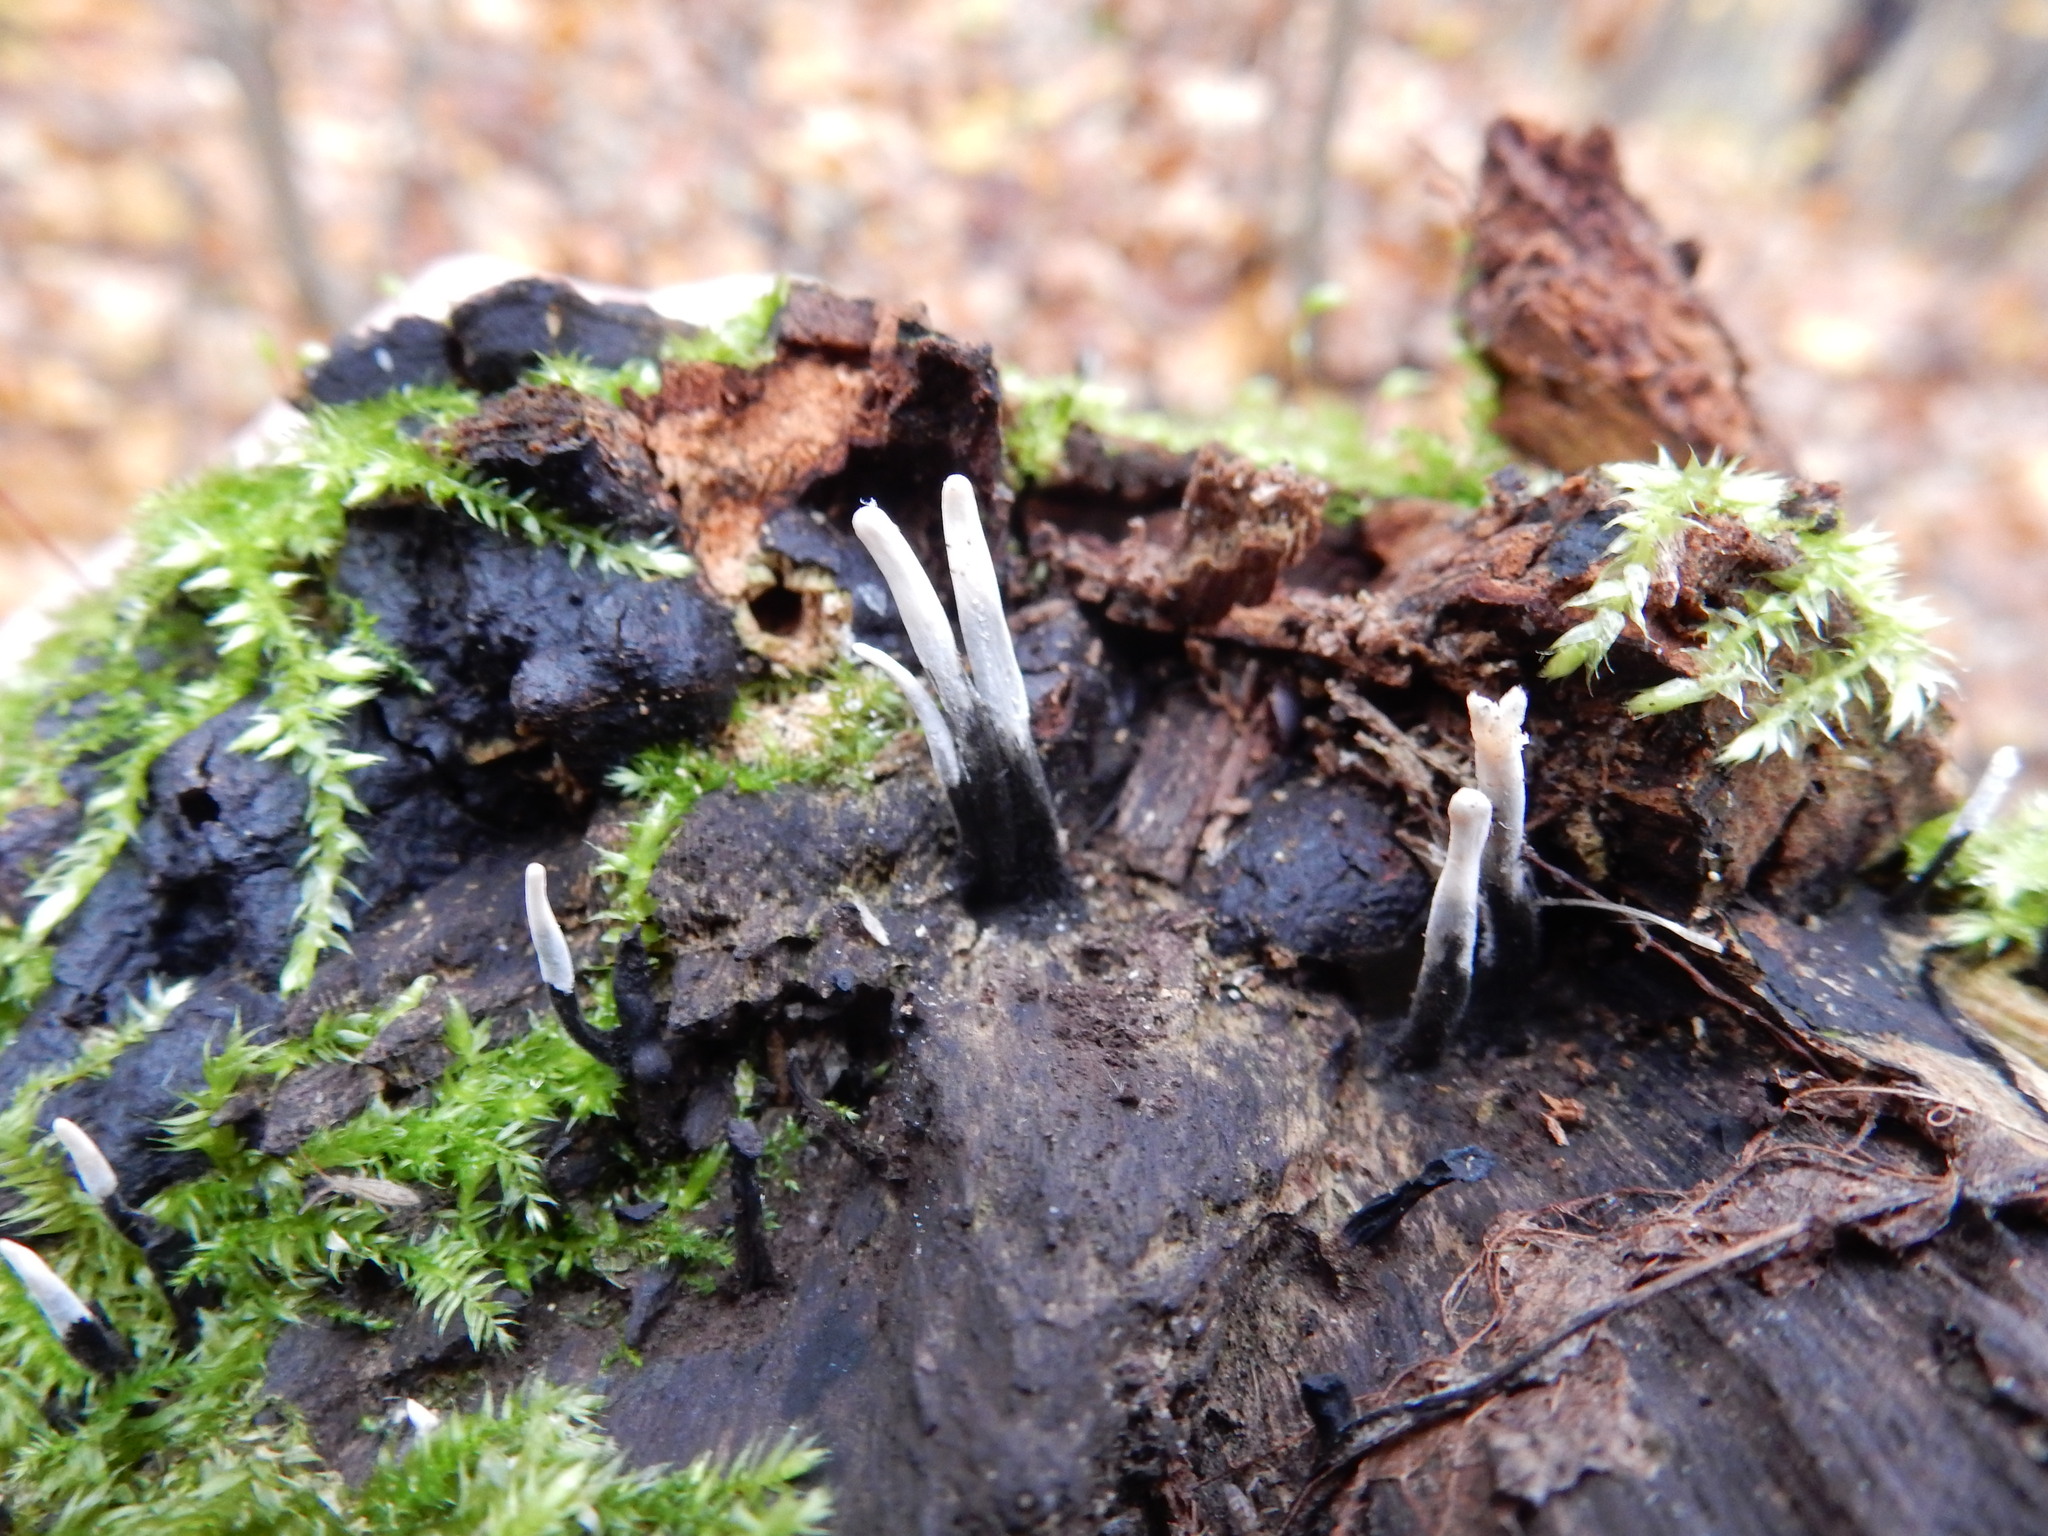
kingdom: Fungi
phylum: Ascomycota
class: Sordariomycetes
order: Xylariales
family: Xylariaceae
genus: Xylaria
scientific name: Xylaria hypoxylon
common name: Candle-snuff fungus
